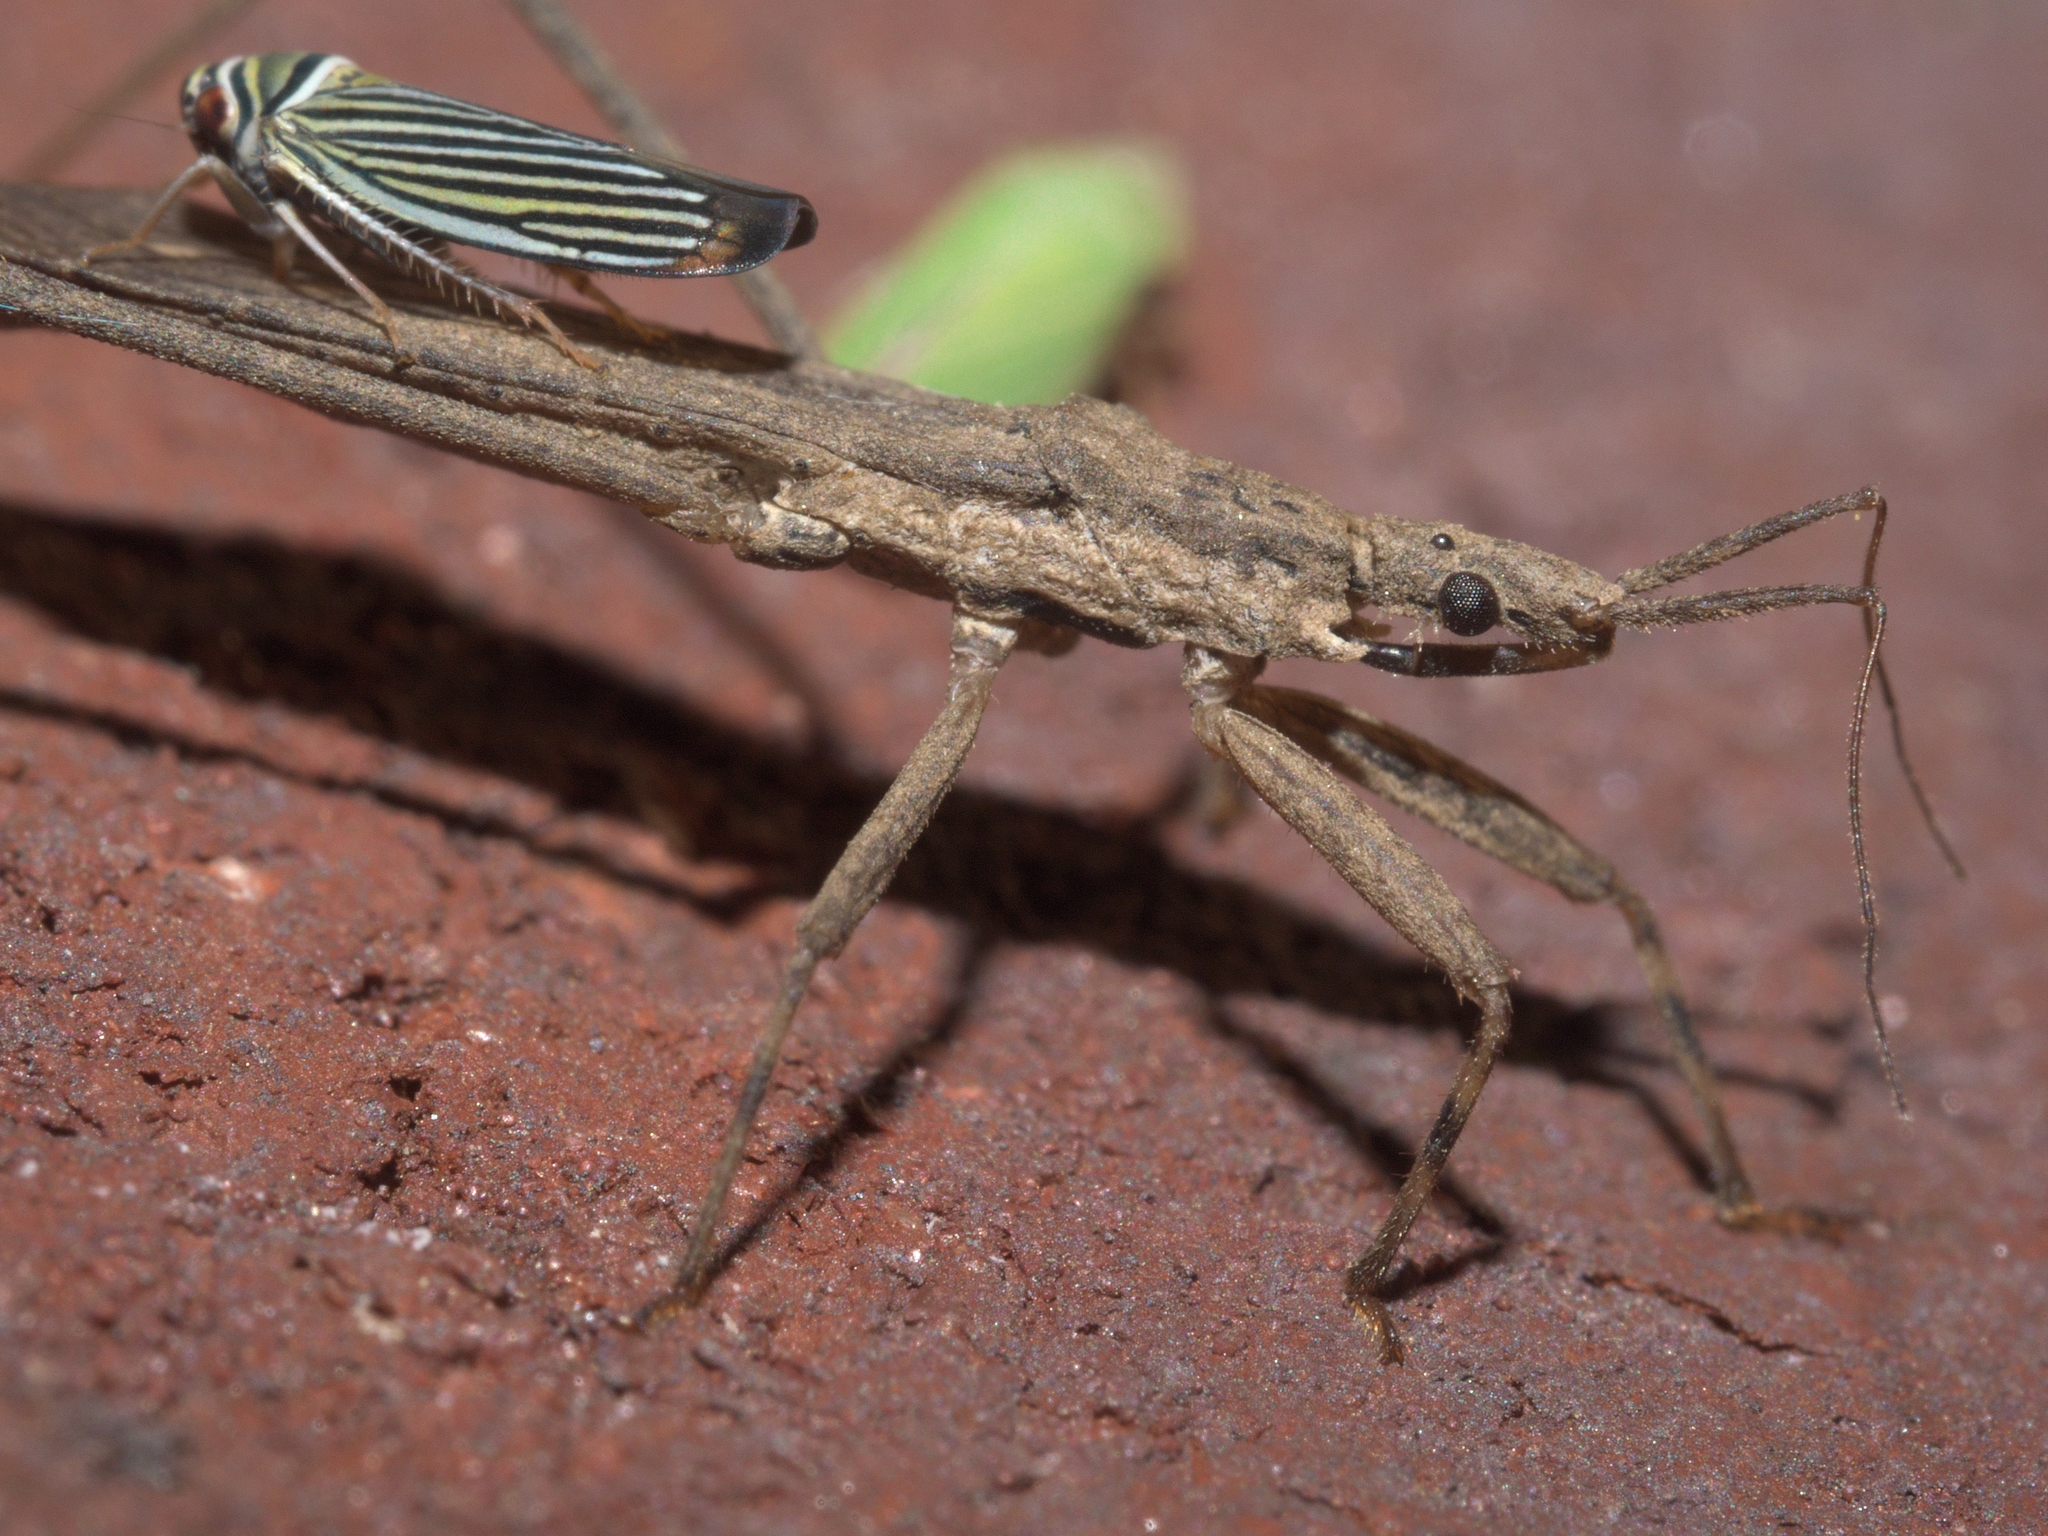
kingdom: Animalia
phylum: Arthropoda
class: Insecta
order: Hemiptera
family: Cicadellidae
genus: Tylozygus
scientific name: Tylozygus bifidus
